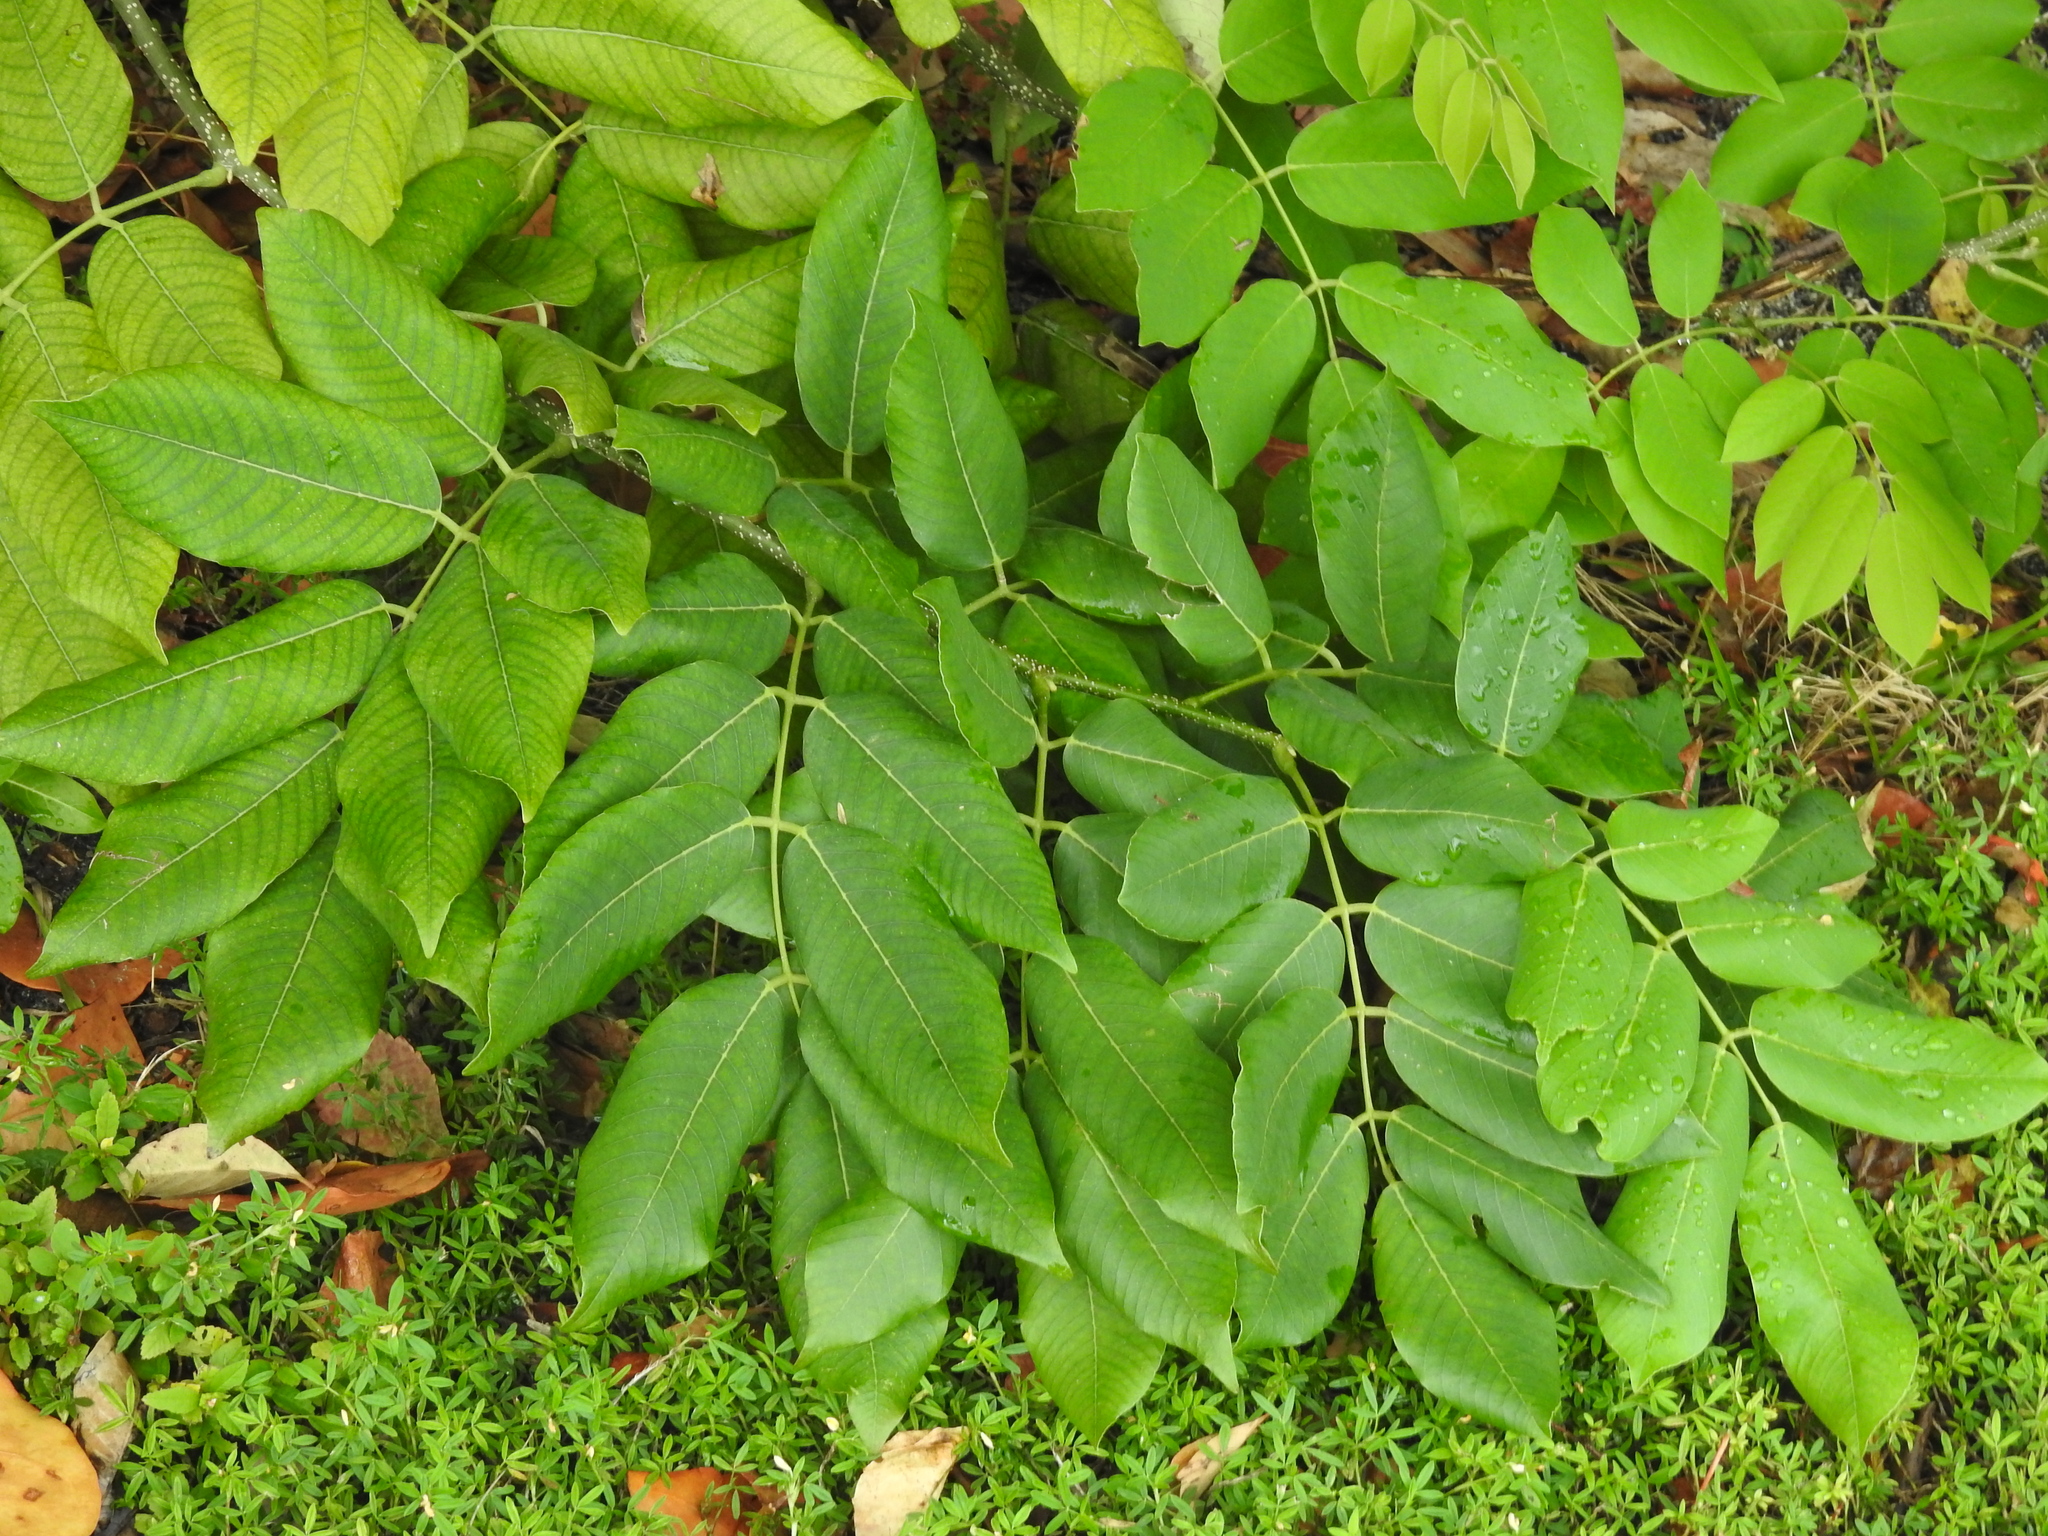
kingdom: Plantae
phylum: Tracheophyta
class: Magnoliopsida
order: Fabales
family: Fabaceae
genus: Piscidia
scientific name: Piscidia piscipula
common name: Florida fishpoison tree
